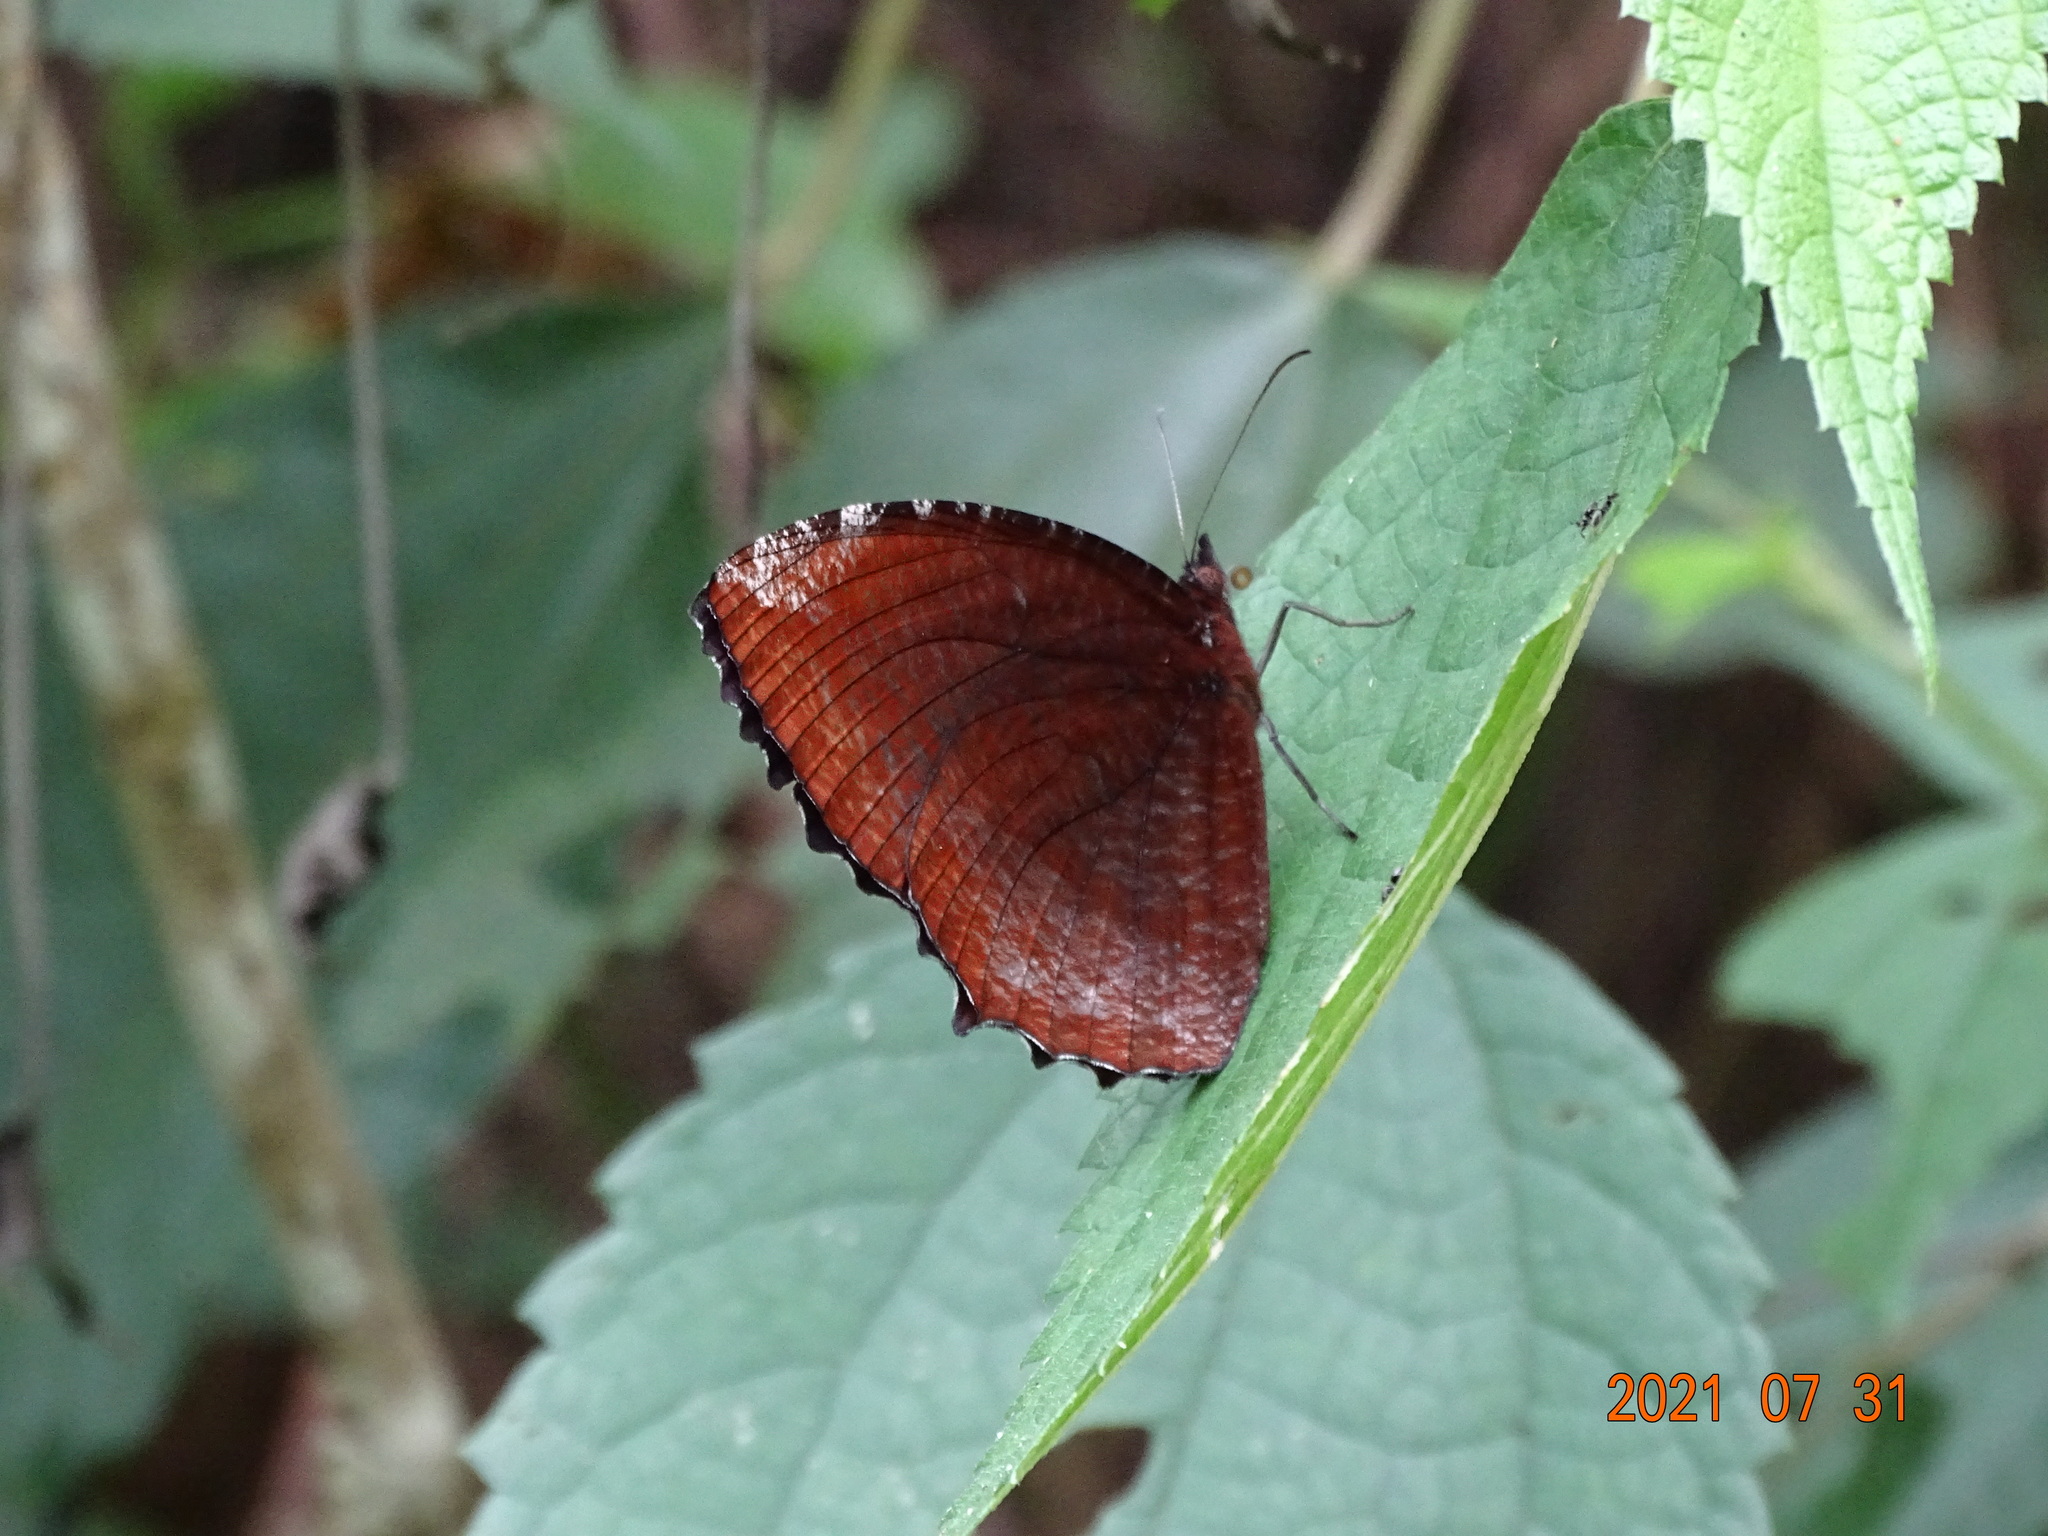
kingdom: Animalia
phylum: Arthropoda
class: Insecta
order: Lepidoptera
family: Nymphalidae
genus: Elymnias
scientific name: Elymnias hypermnestra
